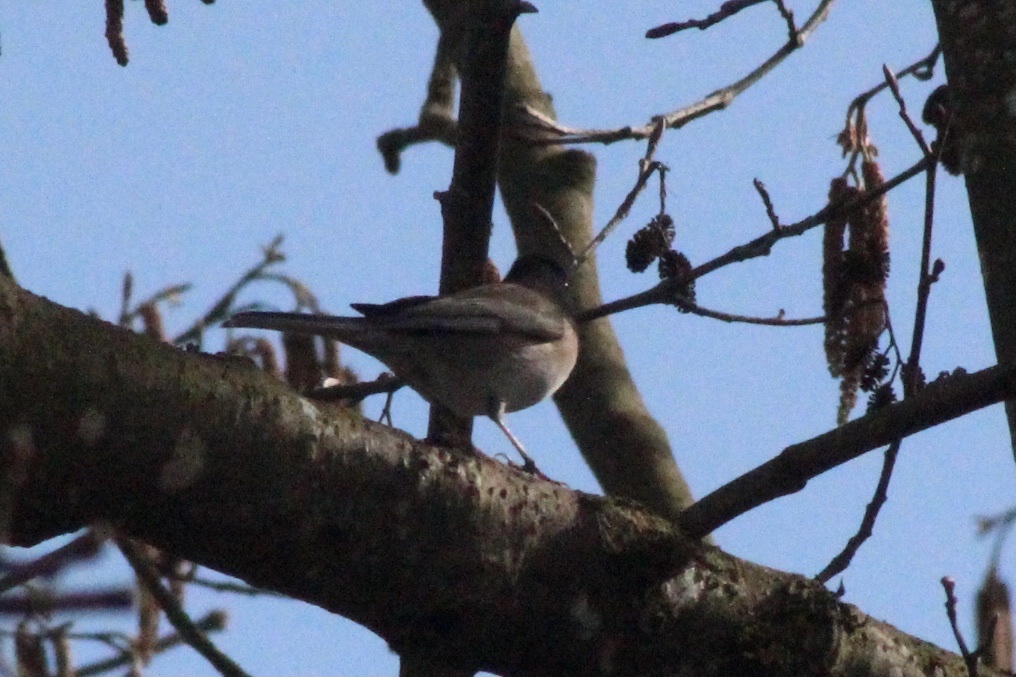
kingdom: Animalia
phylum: Chordata
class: Aves
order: Passeriformes
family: Passerellidae
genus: Junco
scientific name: Junco hyemalis
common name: Dark-eyed junco
